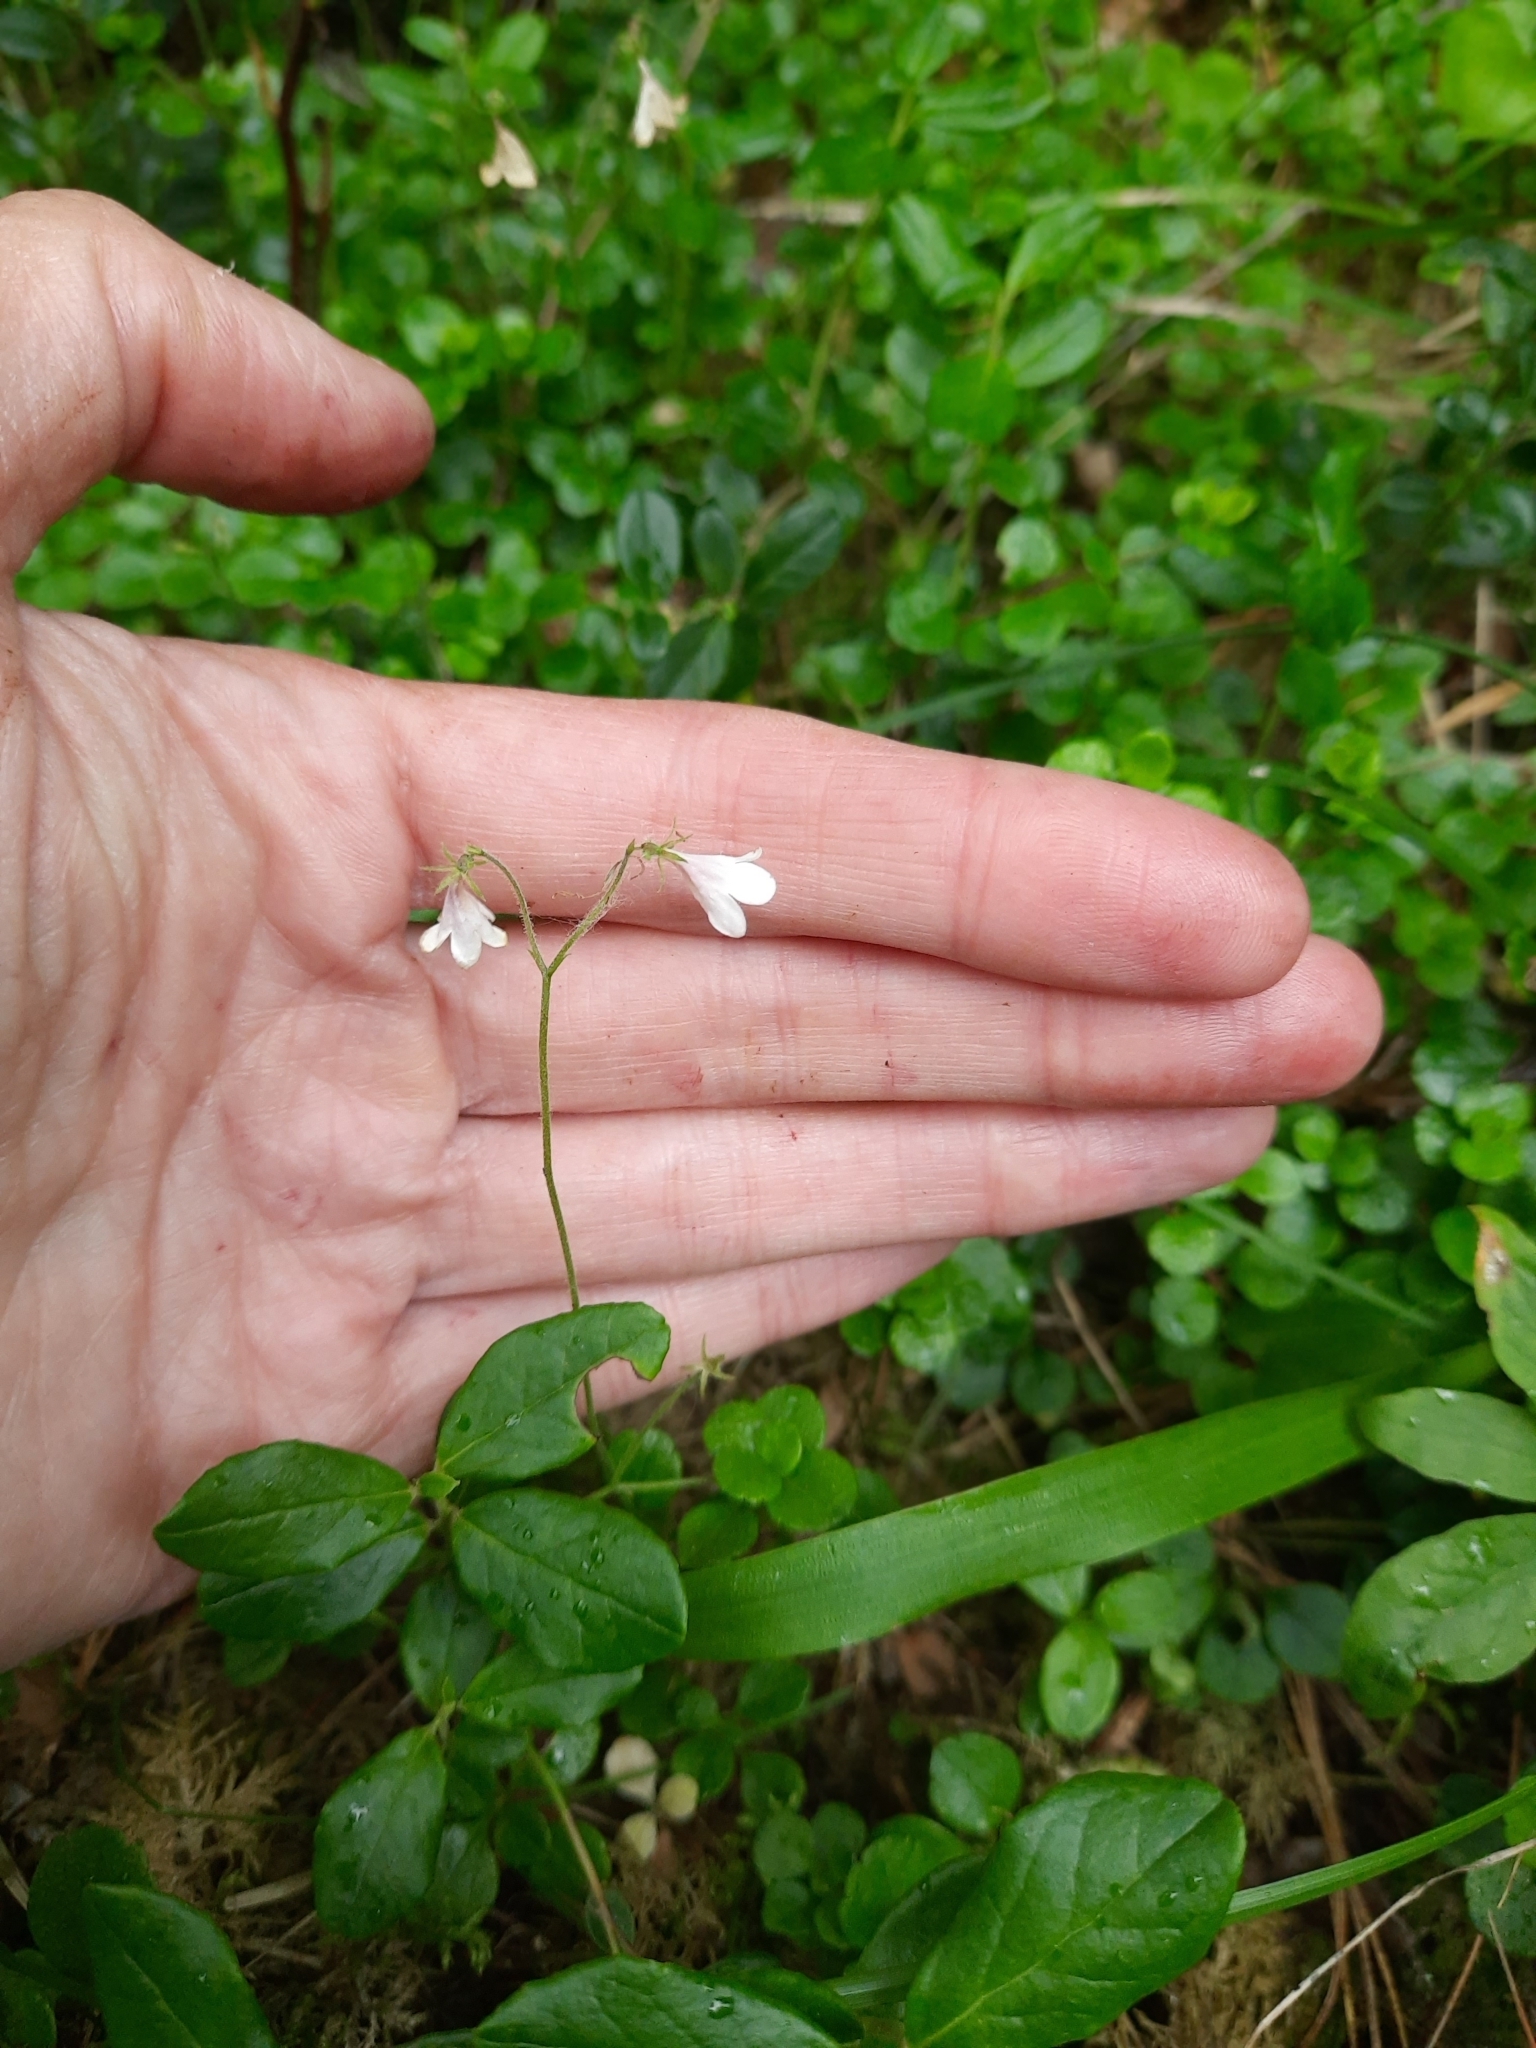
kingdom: Plantae
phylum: Tracheophyta
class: Magnoliopsida
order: Dipsacales
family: Caprifoliaceae
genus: Linnaea
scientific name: Linnaea borealis
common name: Twinflower
